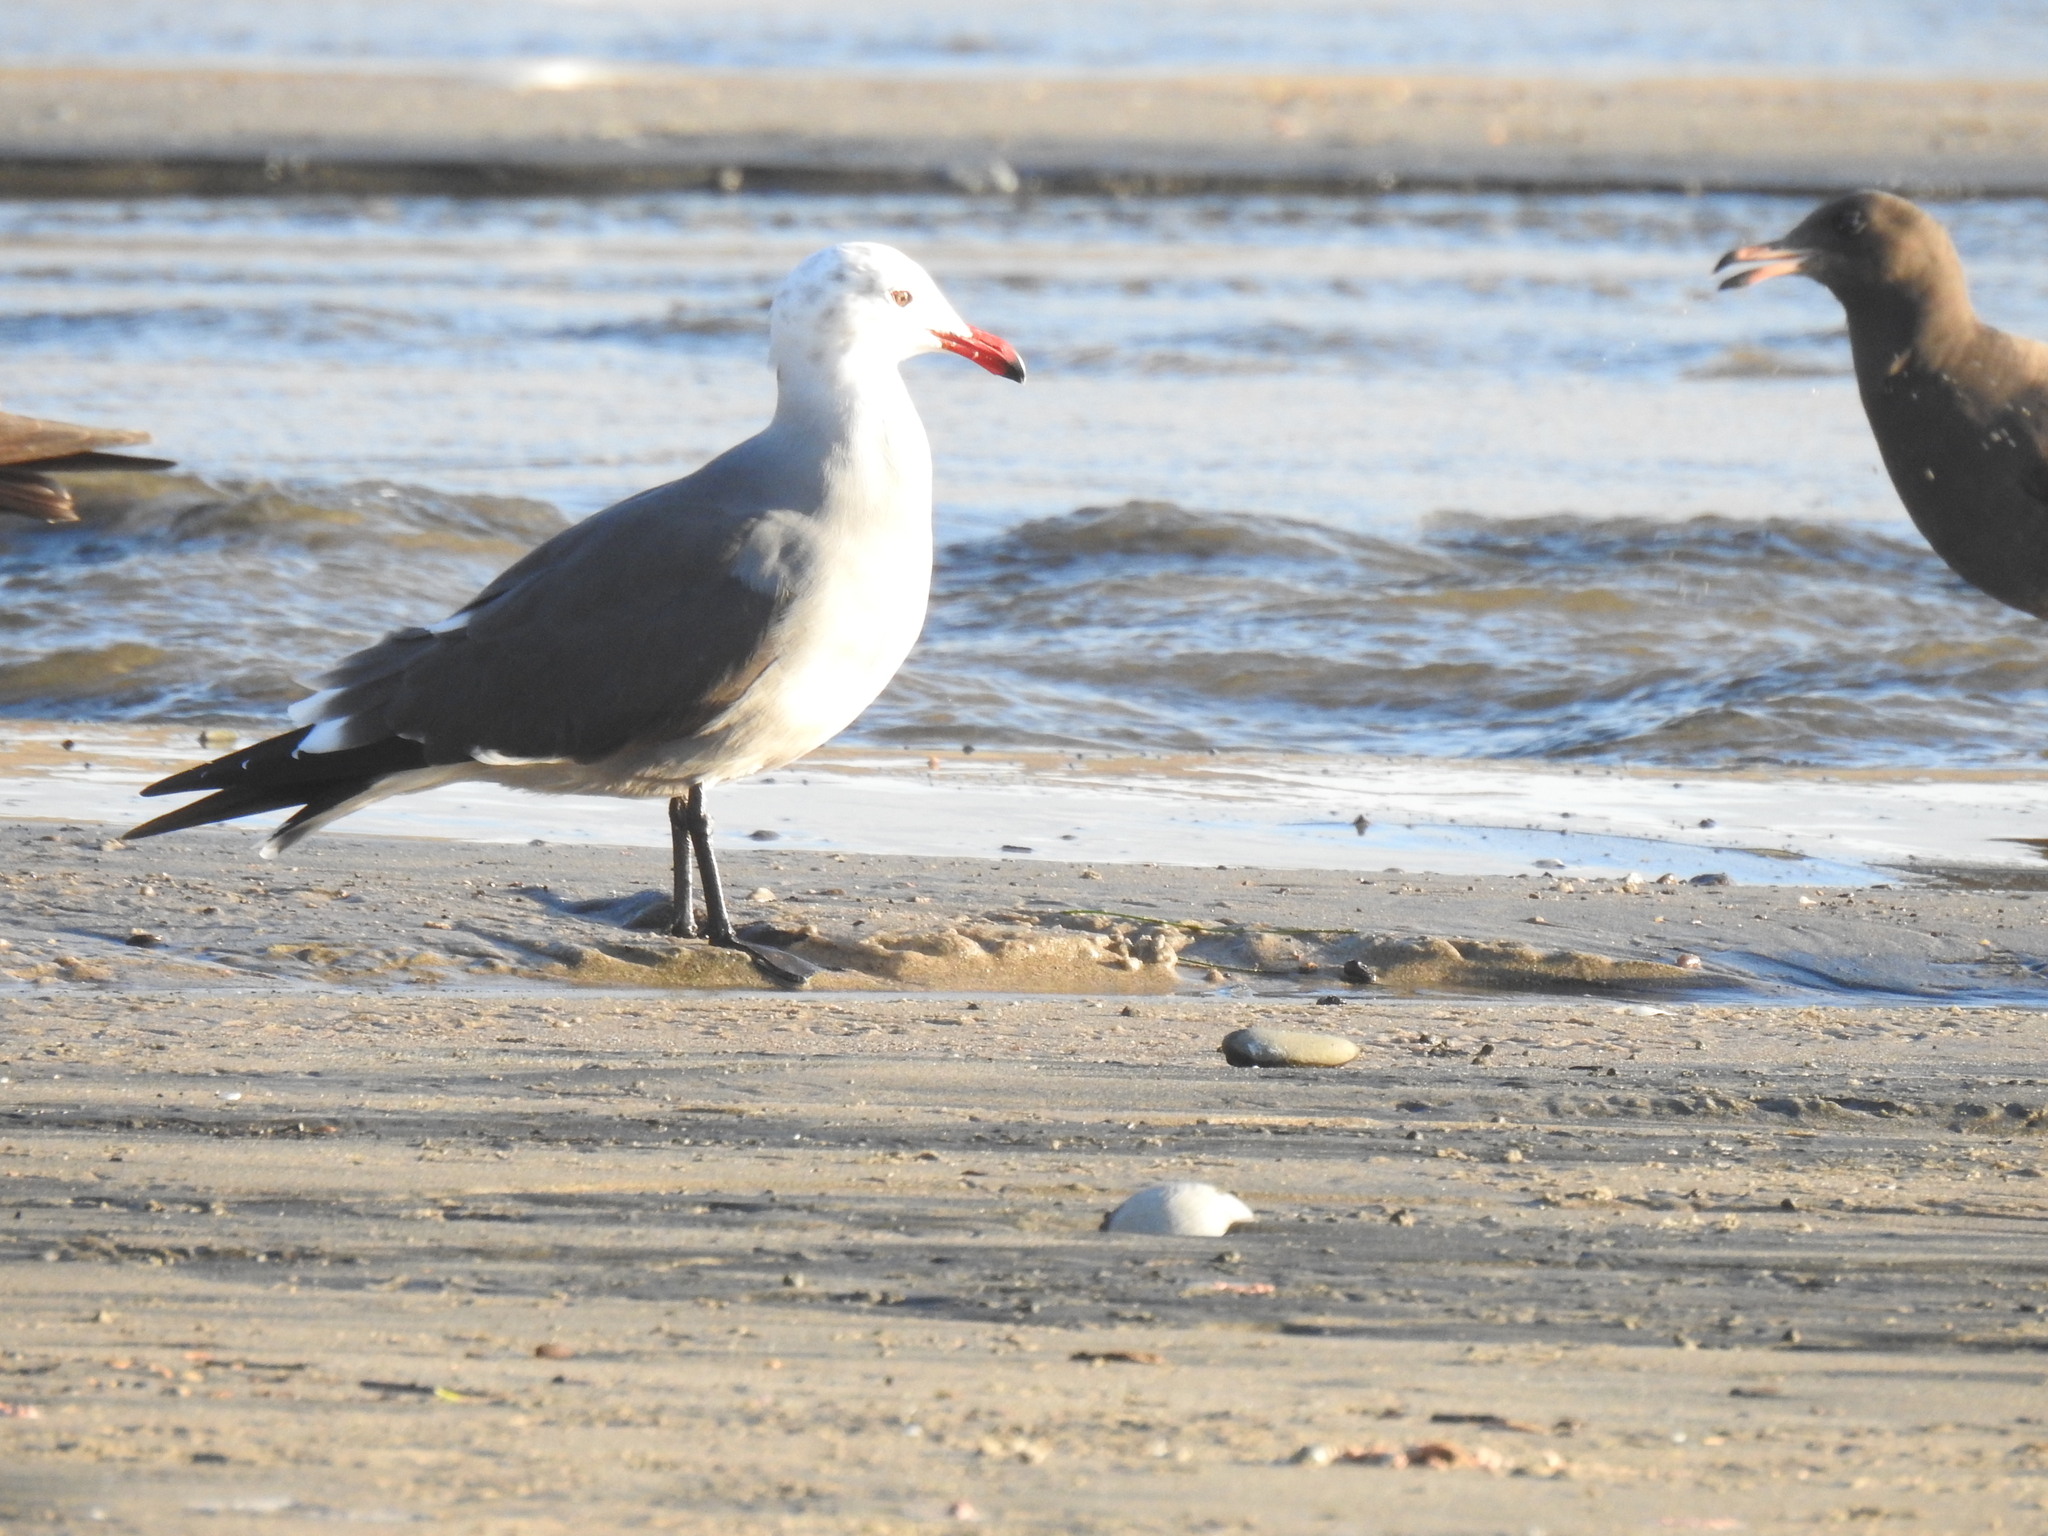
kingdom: Animalia
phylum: Chordata
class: Aves
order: Charadriiformes
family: Laridae
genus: Larus
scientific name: Larus heermanni
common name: Heermann's gull
